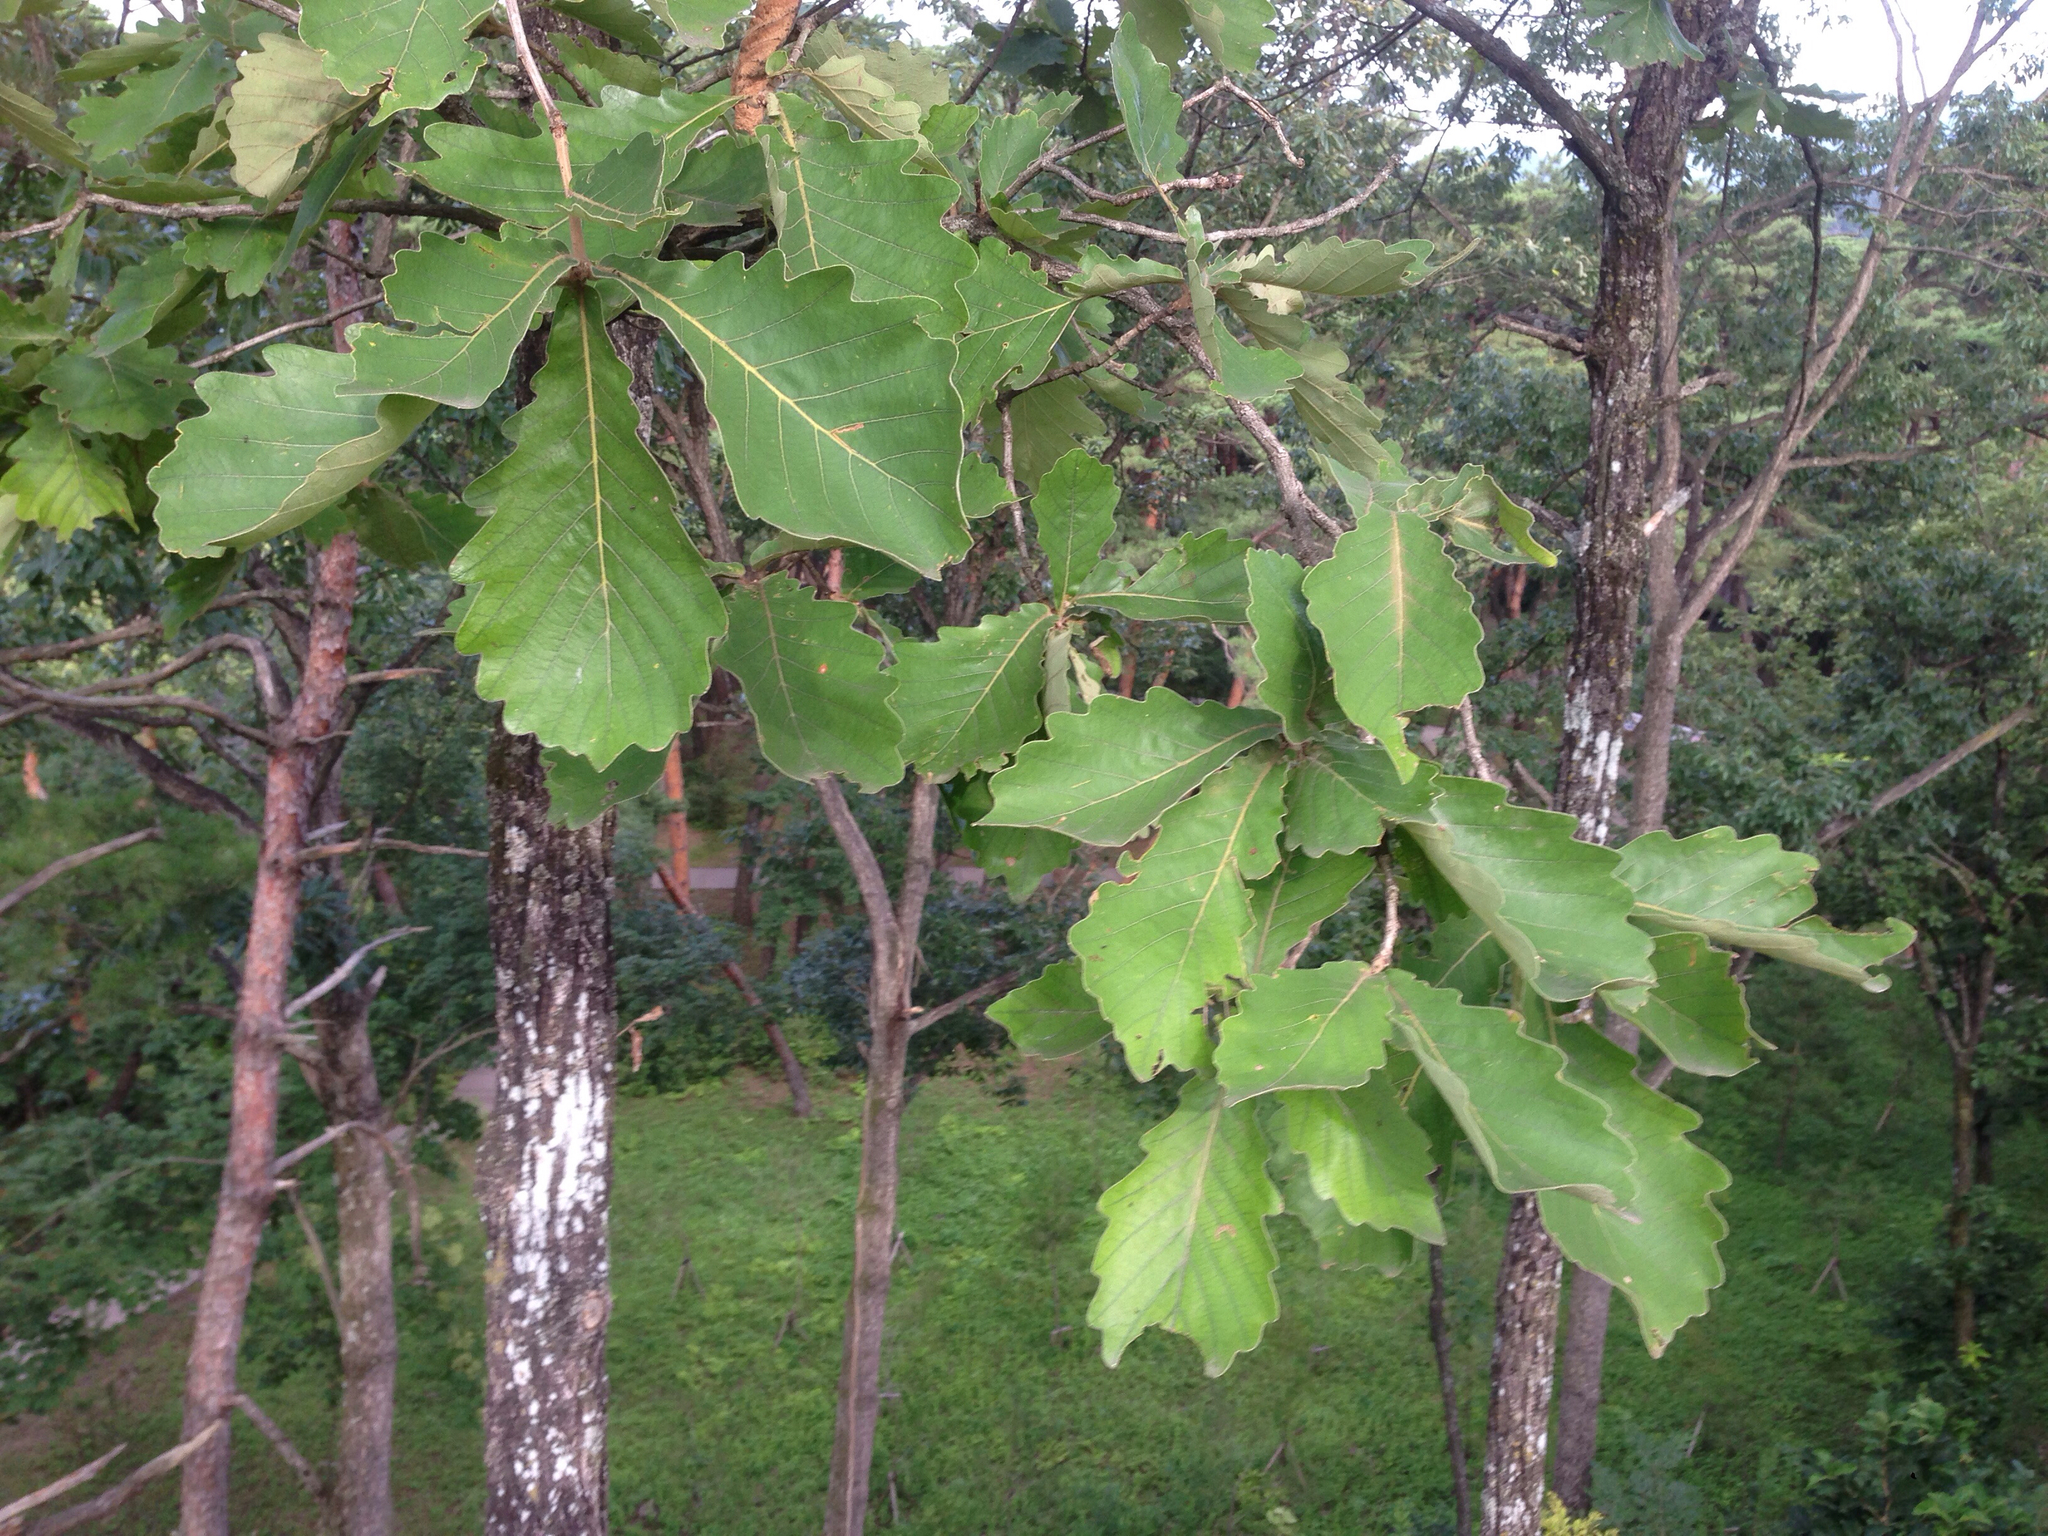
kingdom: Plantae
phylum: Tracheophyta
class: Magnoliopsida
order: Fagales
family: Fagaceae
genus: Quercus
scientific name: Quercus dentata
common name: Daimyo oak
